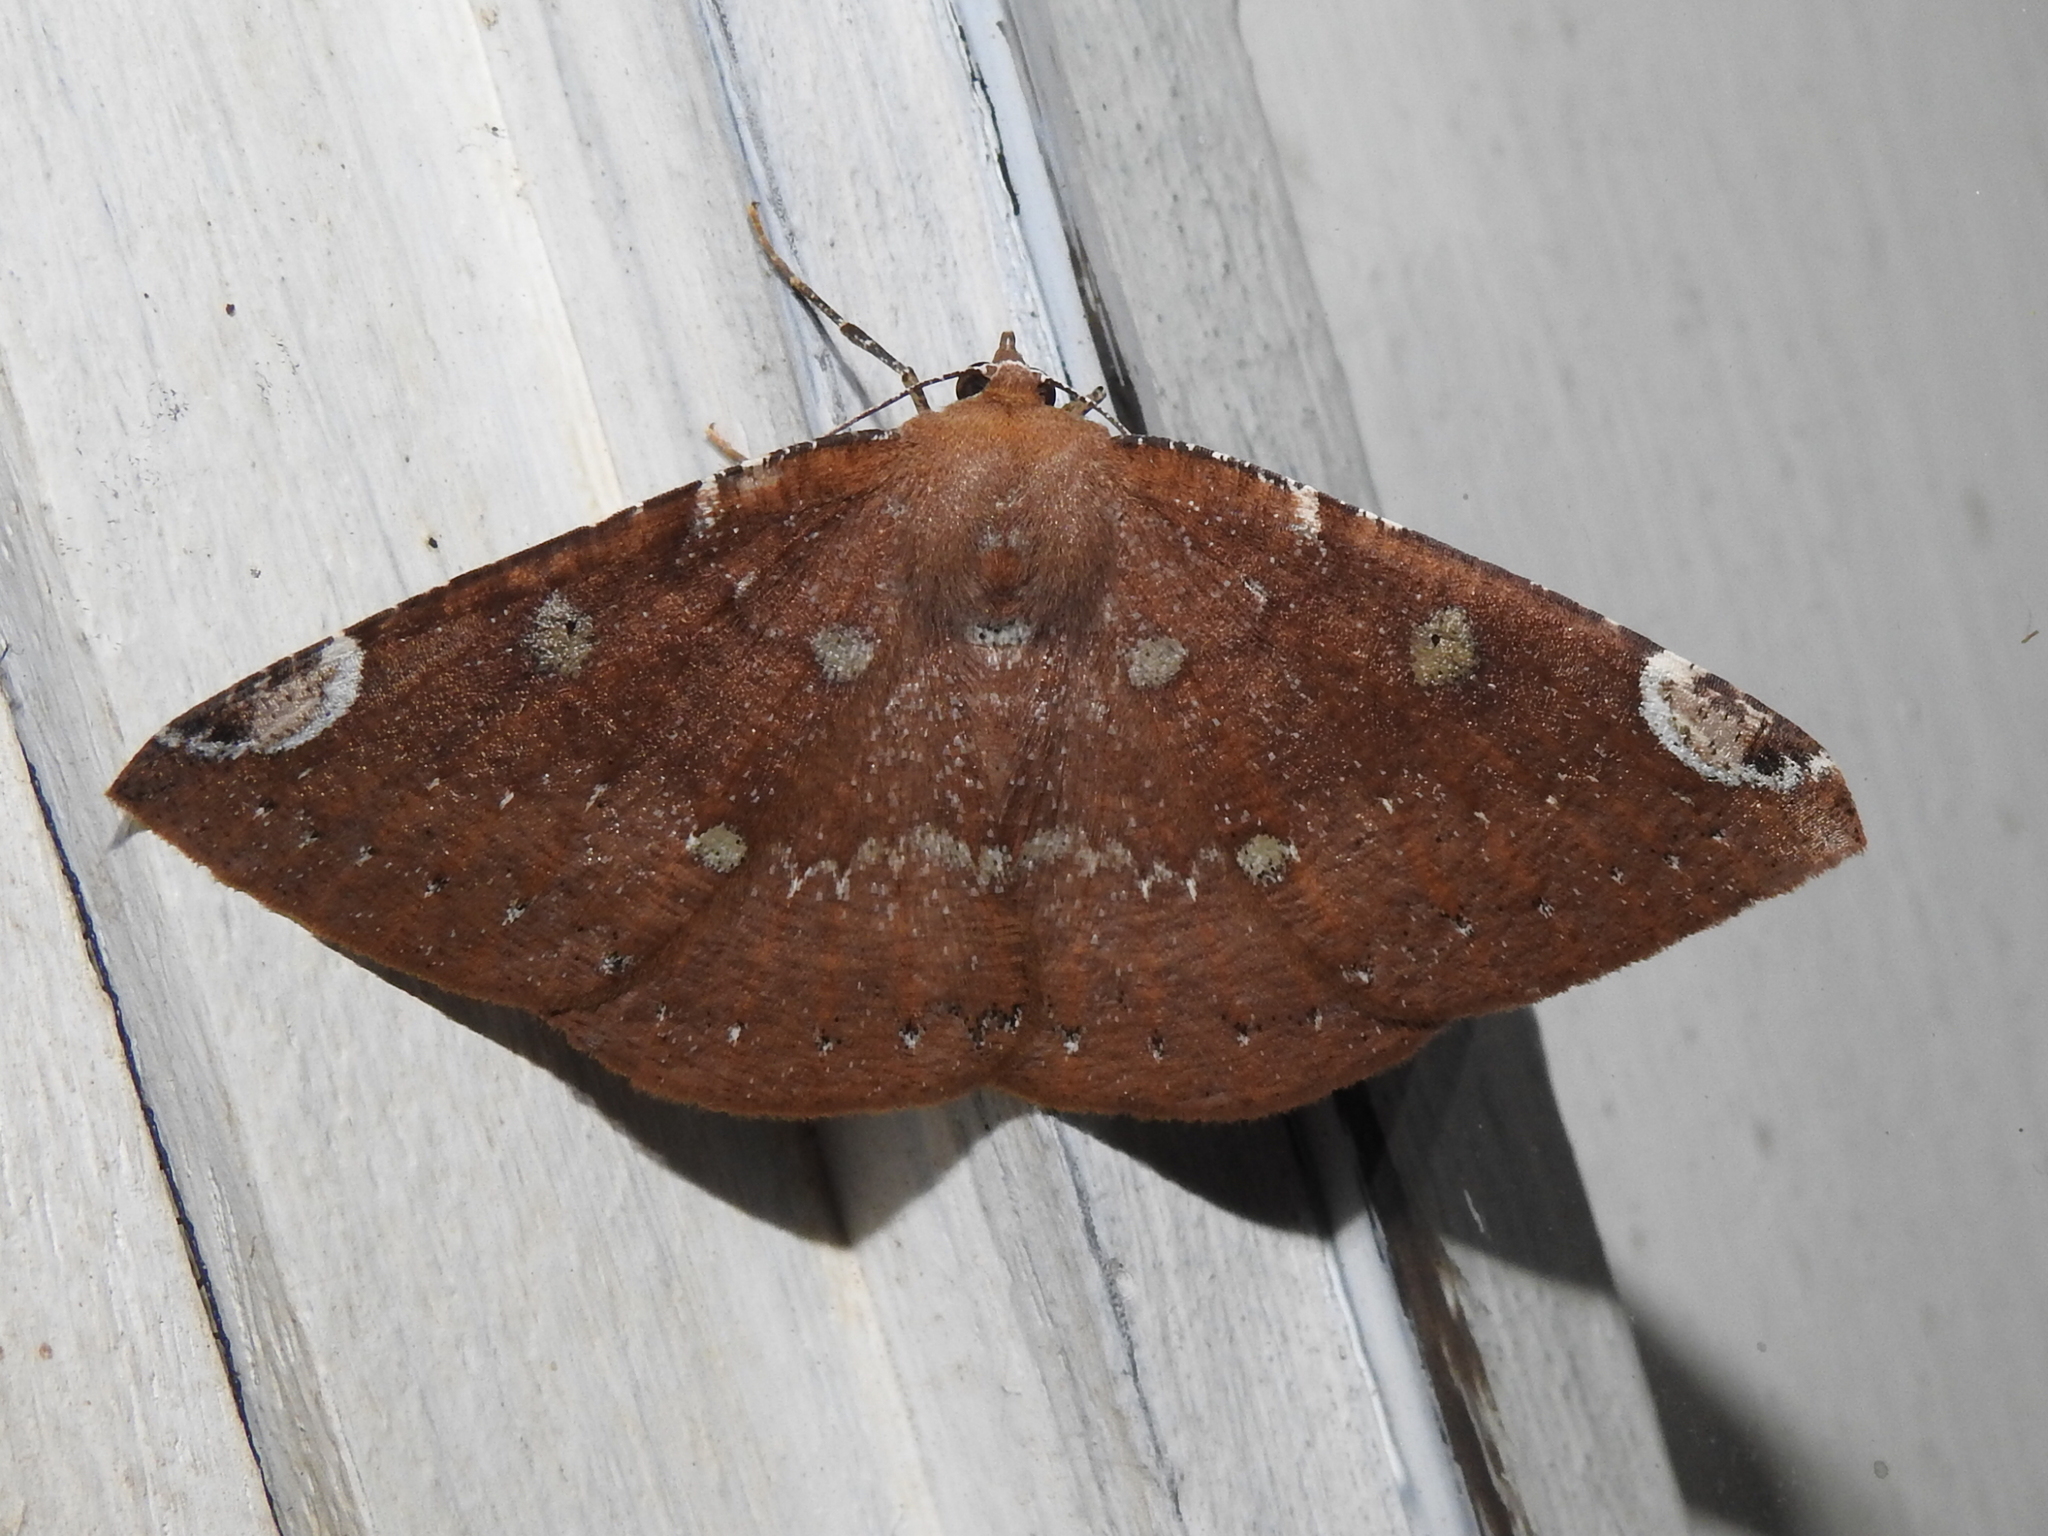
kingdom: Animalia
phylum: Arthropoda
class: Insecta
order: Lepidoptera
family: Geometridae
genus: Herbita
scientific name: Herbita amicaria
